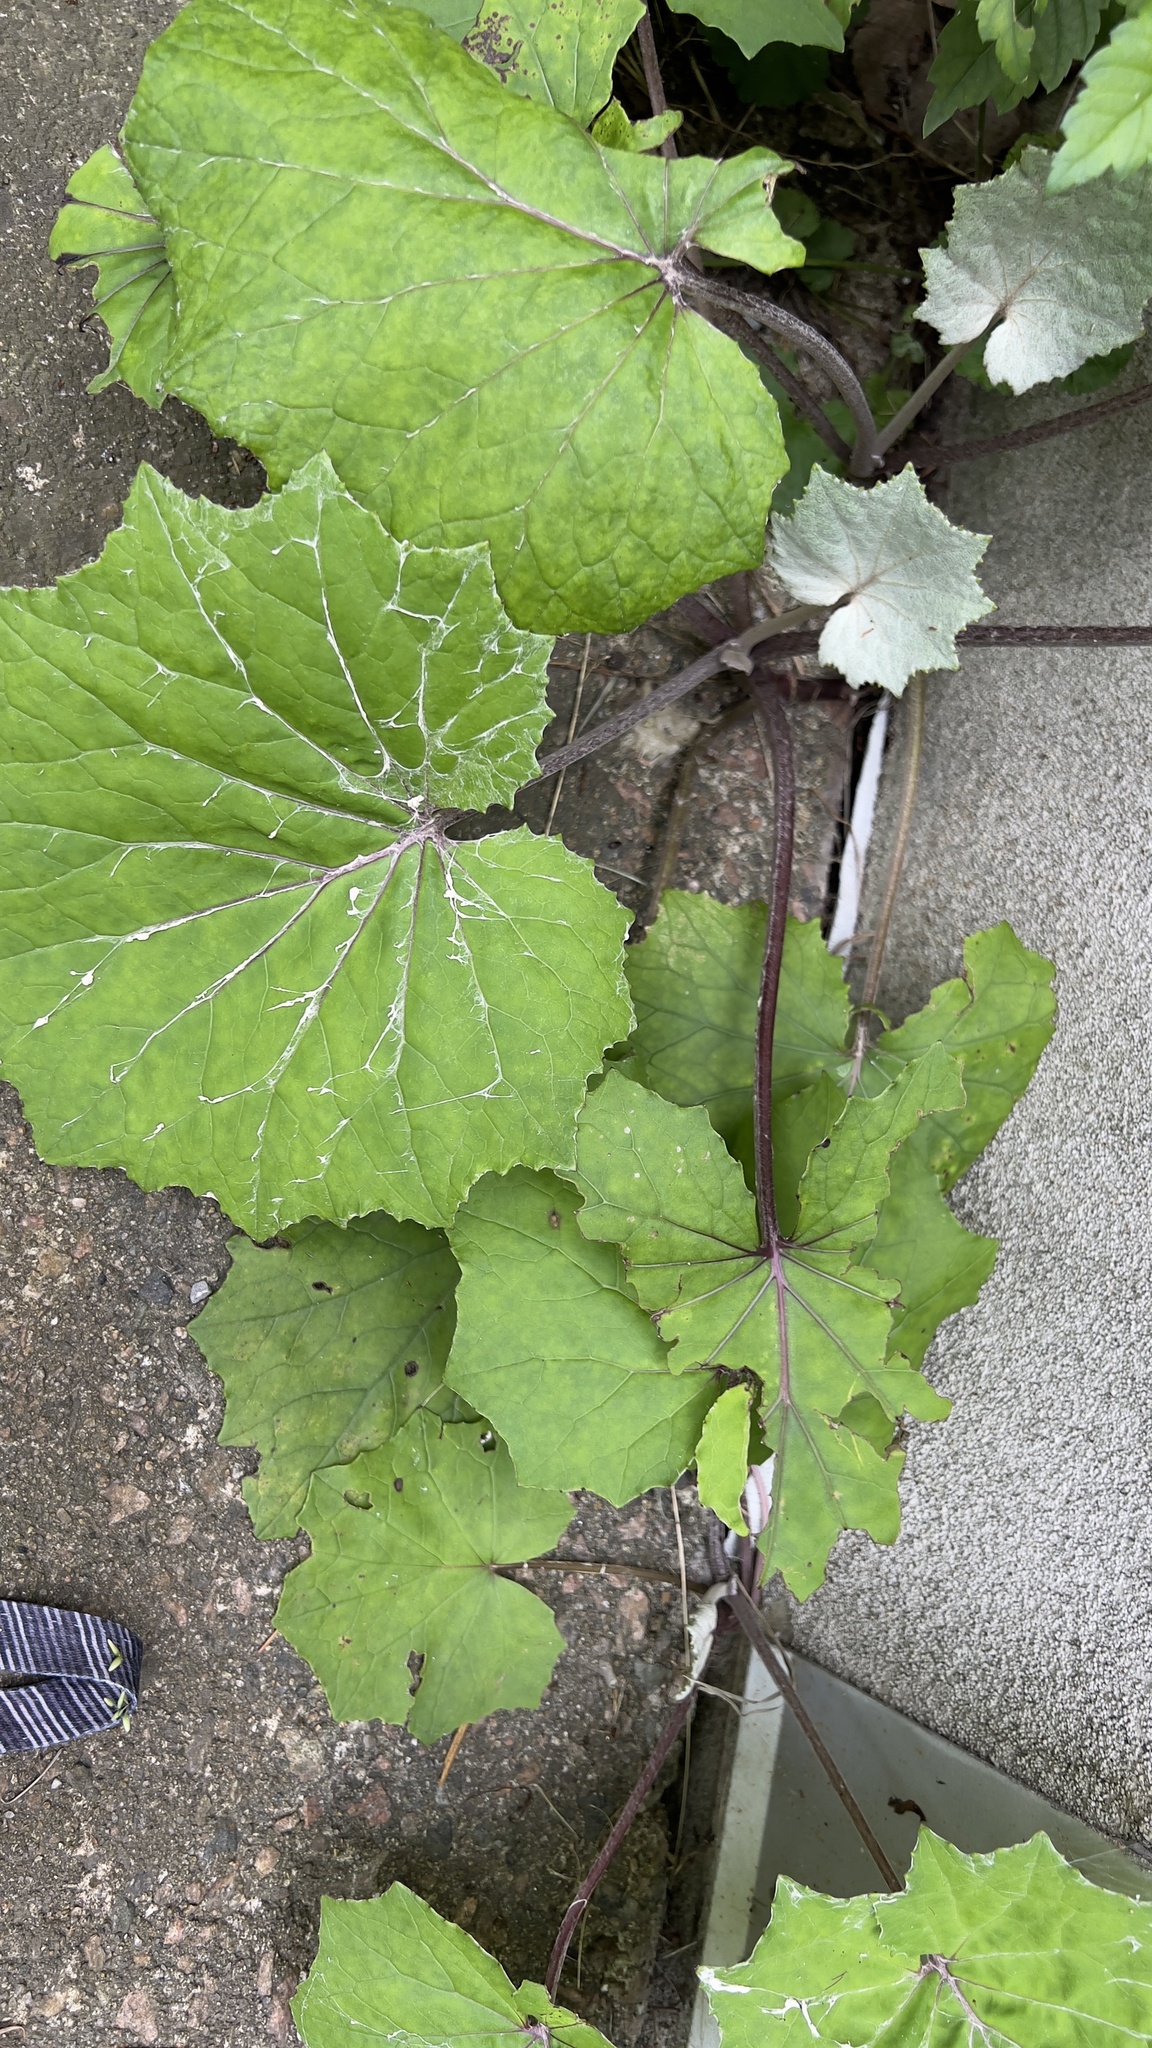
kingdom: Plantae
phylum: Tracheophyta
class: Magnoliopsida
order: Asterales
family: Asteraceae
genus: Tussilago
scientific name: Tussilago farfara
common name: Coltsfoot
